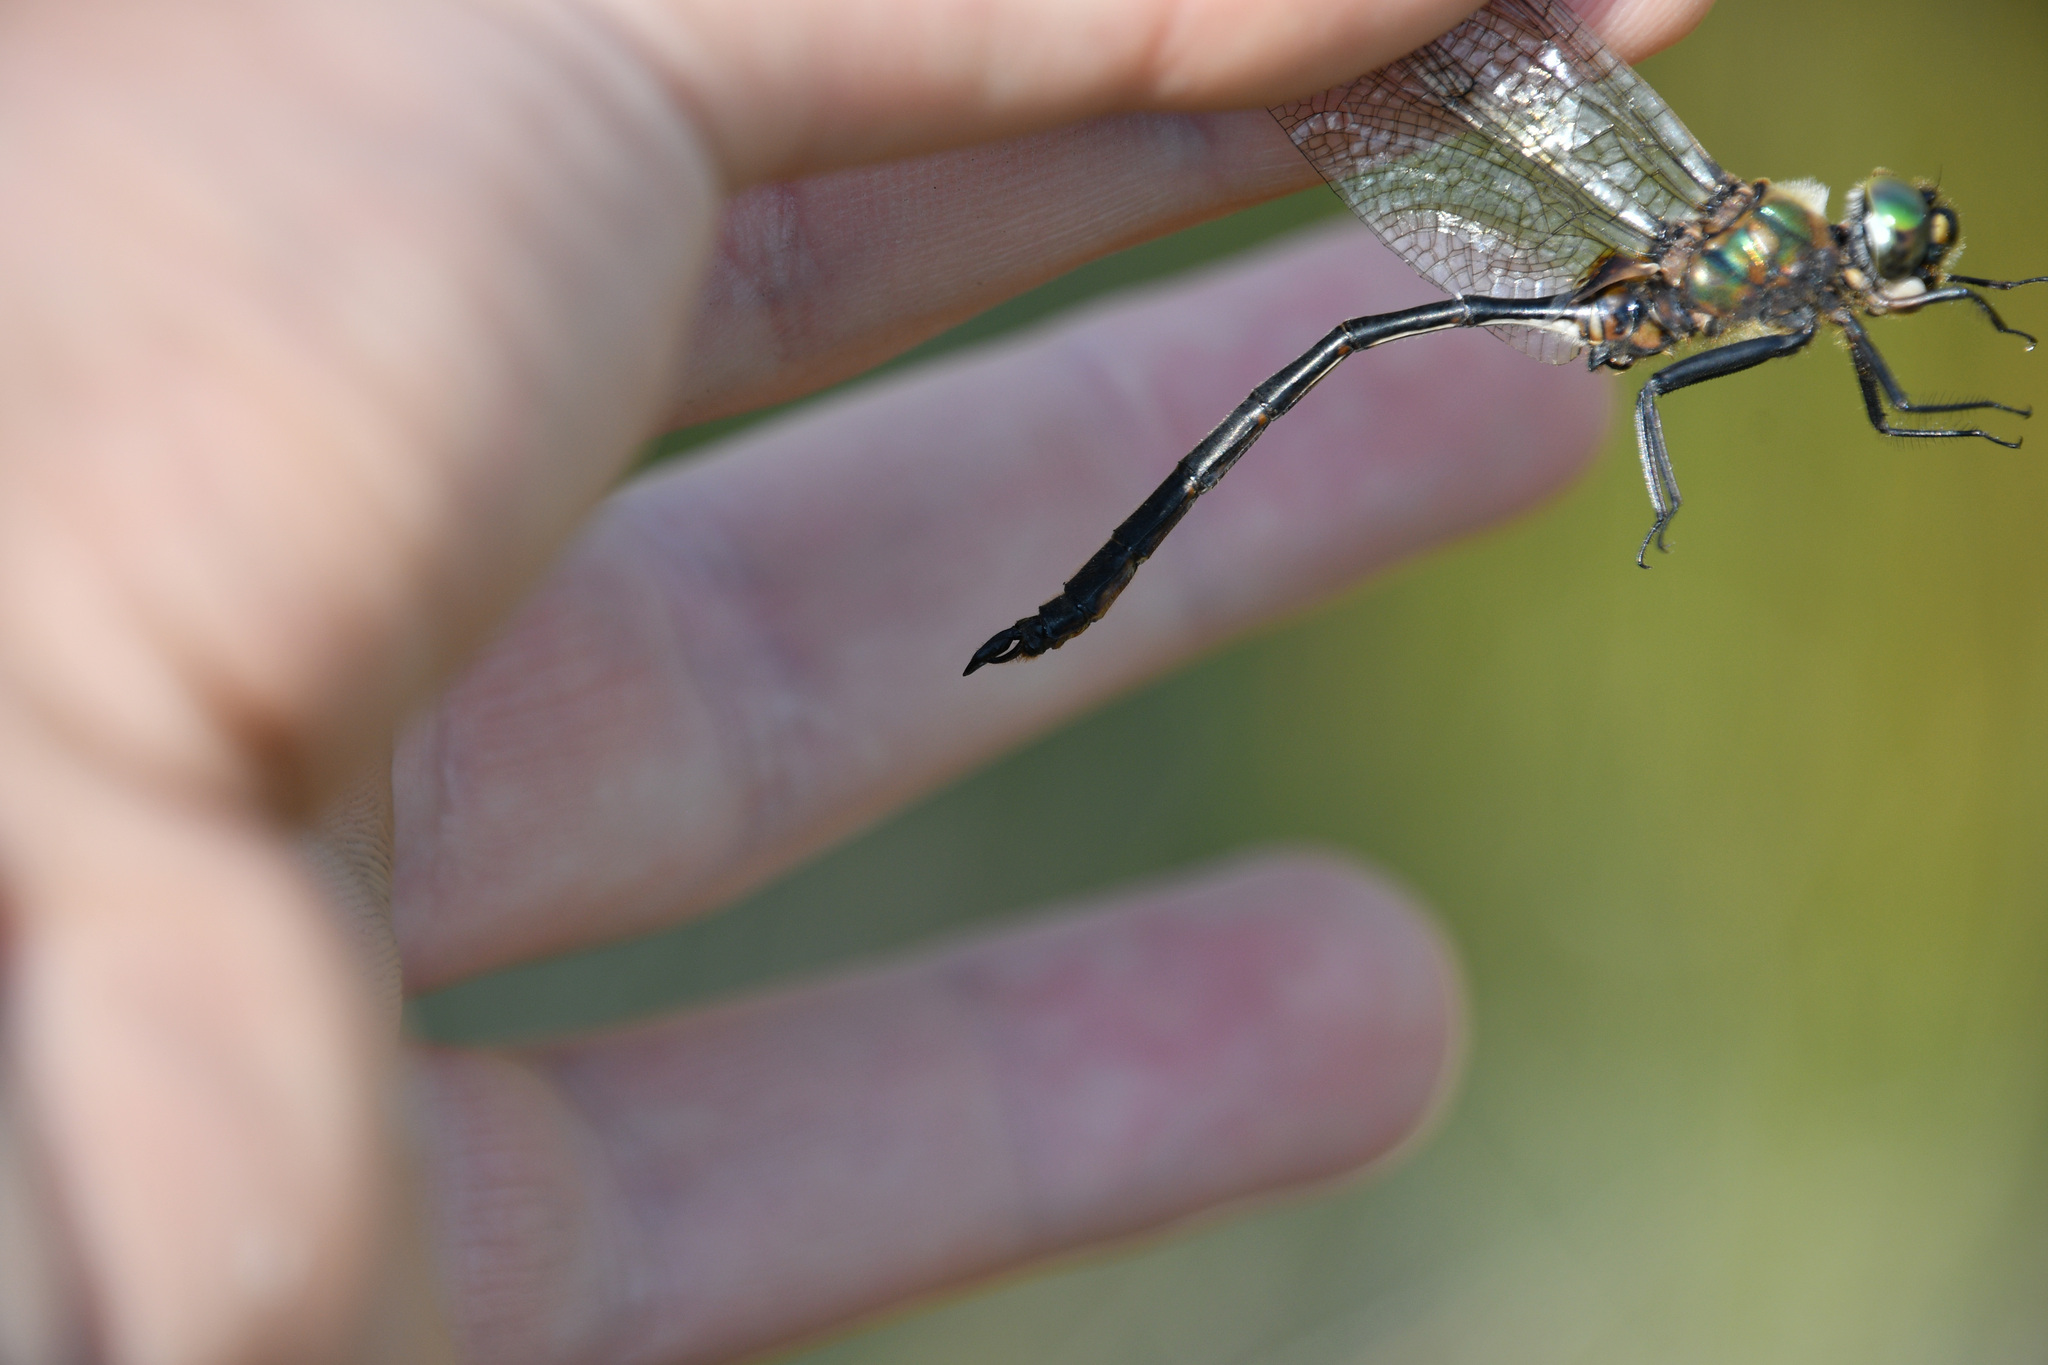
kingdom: Animalia
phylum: Arthropoda
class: Insecta
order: Odonata
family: Corduliidae
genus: Somatochlora
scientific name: Somatochlora franklini
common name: Delicate emerald
